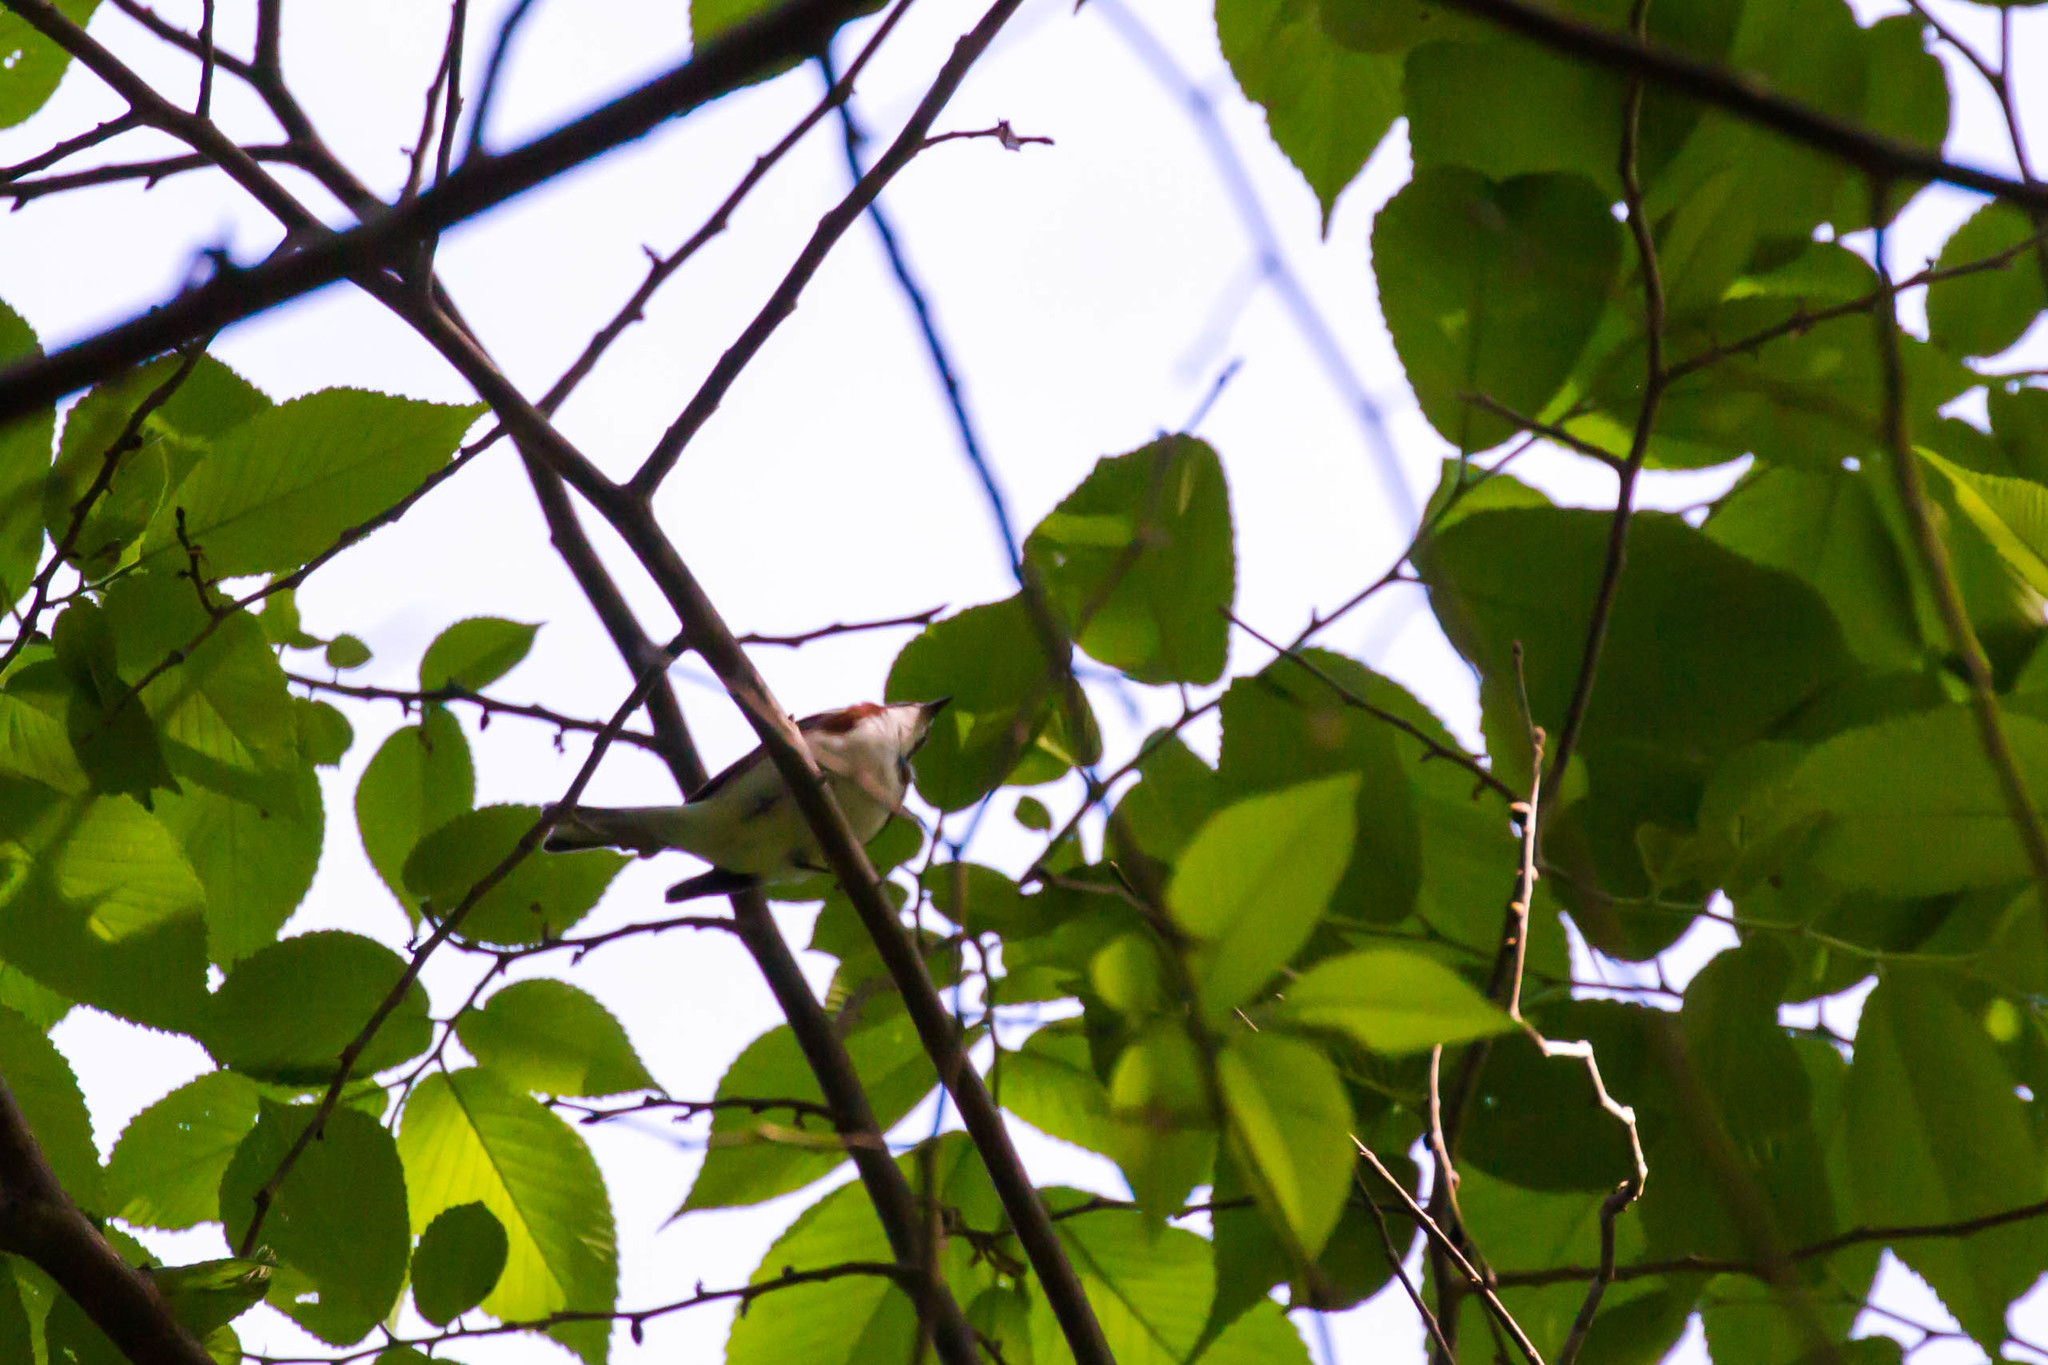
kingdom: Animalia
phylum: Chordata
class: Aves
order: Passeriformes
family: Parulidae
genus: Setophaga
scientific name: Setophaga pensylvanica
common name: Chestnut-sided warbler
